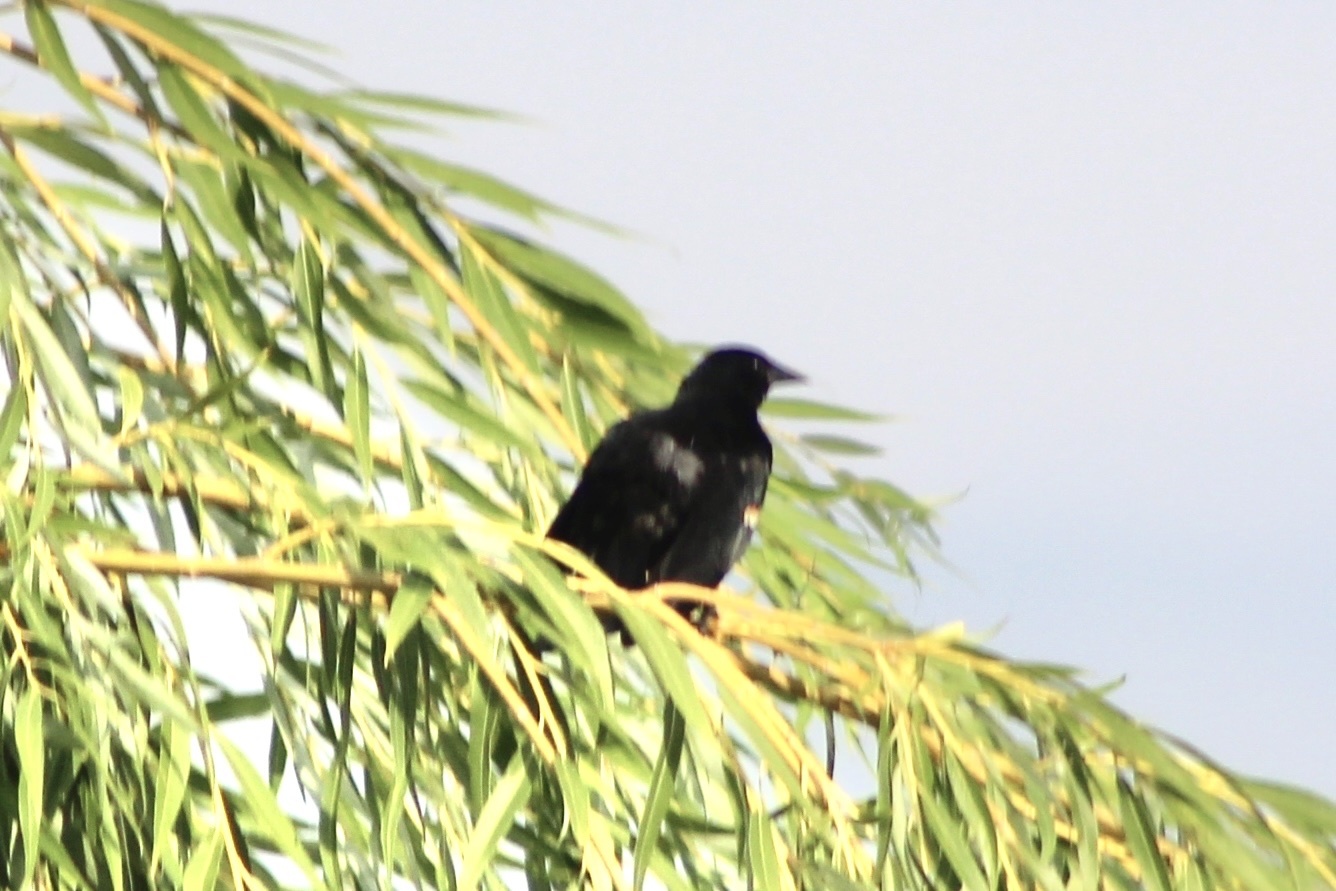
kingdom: Animalia
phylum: Chordata
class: Aves
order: Passeriformes
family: Icteridae
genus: Agelaius
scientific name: Agelaius phoeniceus
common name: Red-winged blackbird
